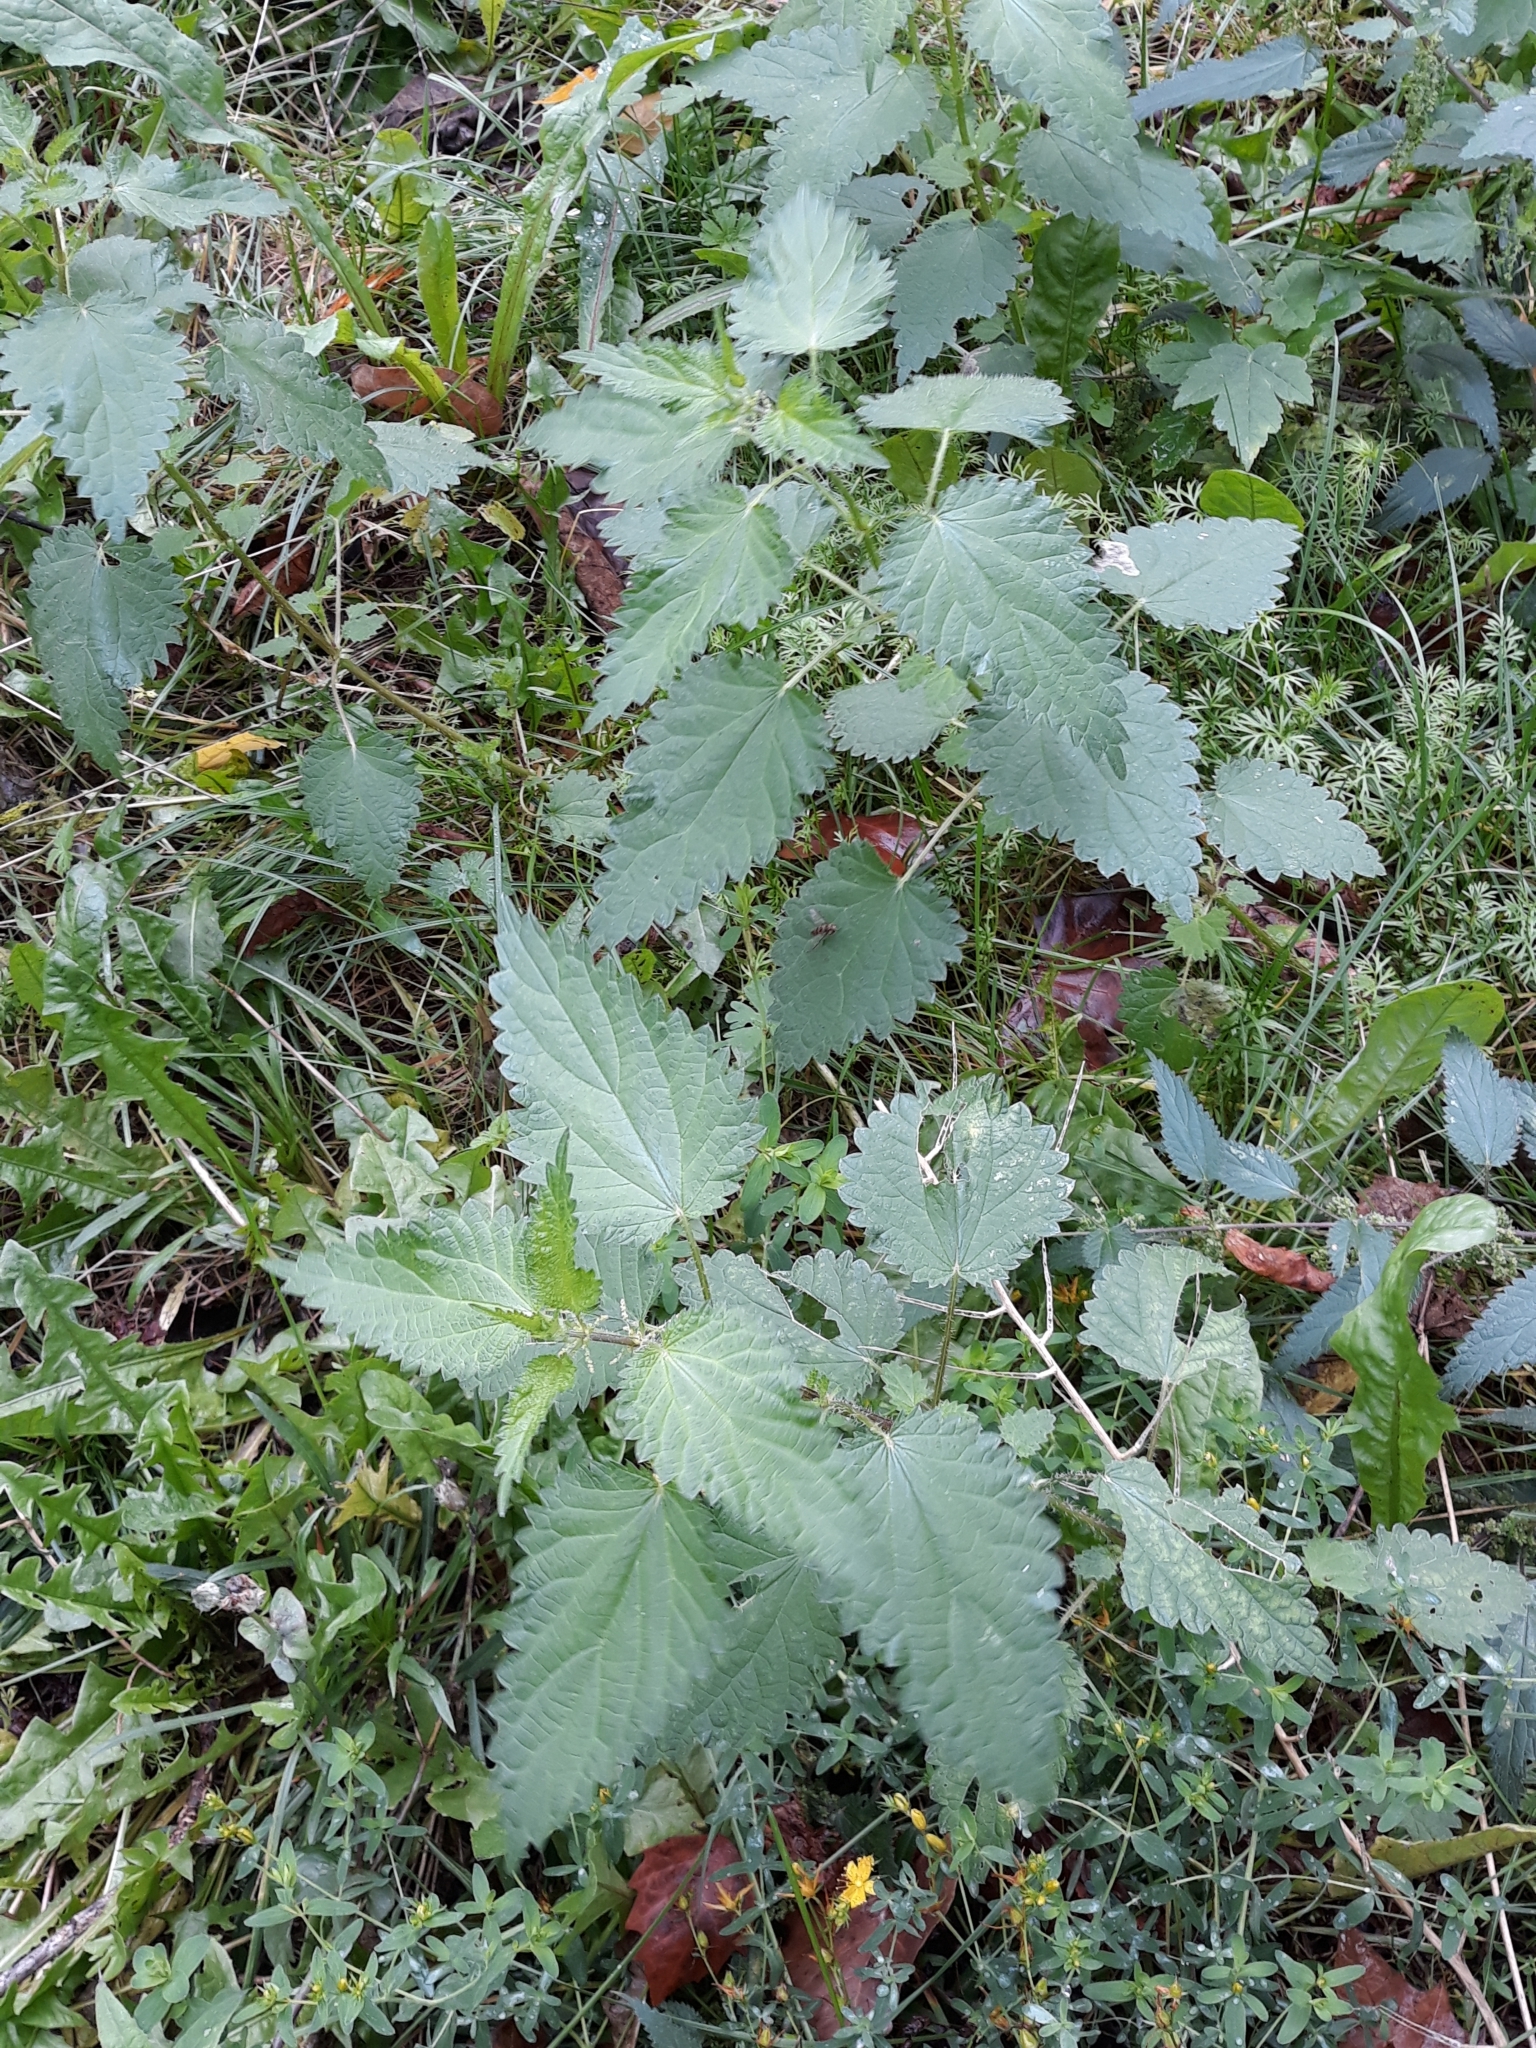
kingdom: Plantae
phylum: Tracheophyta
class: Magnoliopsida
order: Rosales
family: Urticaceae
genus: Urtica
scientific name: Urtica dioica
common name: Common nettle
